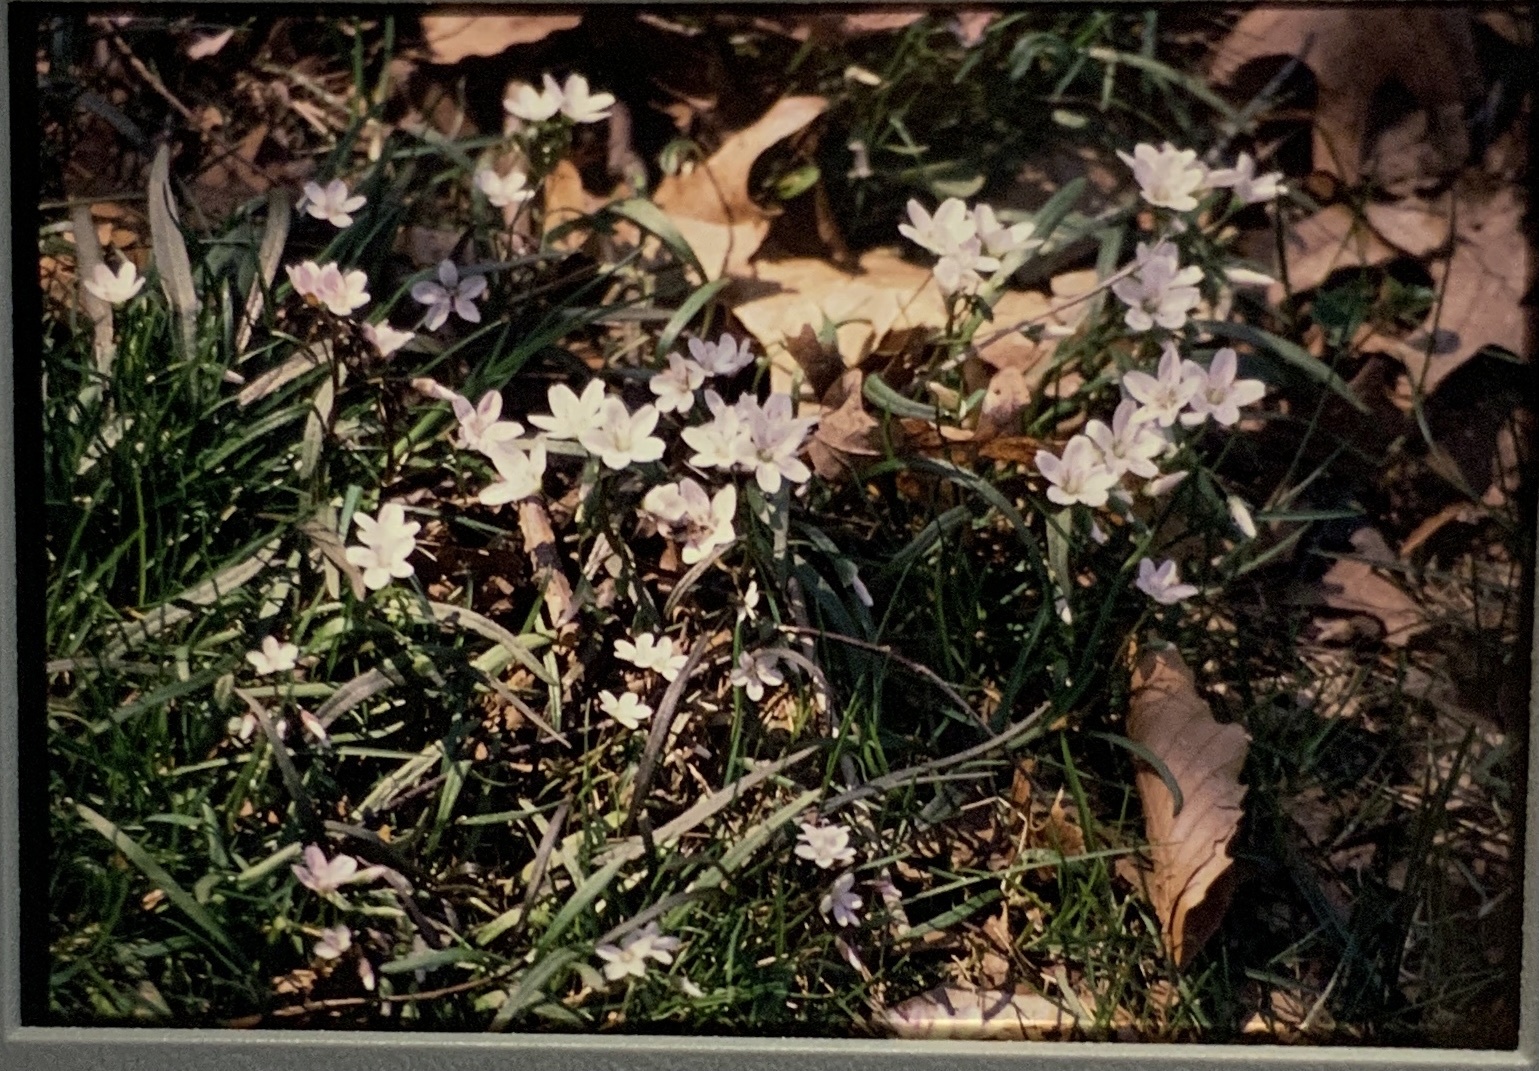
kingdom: Plantae
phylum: Tracheophyta
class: Magnoliopsida
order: Caryophyllales
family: Montiaceae
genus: Claytonia
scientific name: Claytonia virginica
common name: Virginia springbeauty
